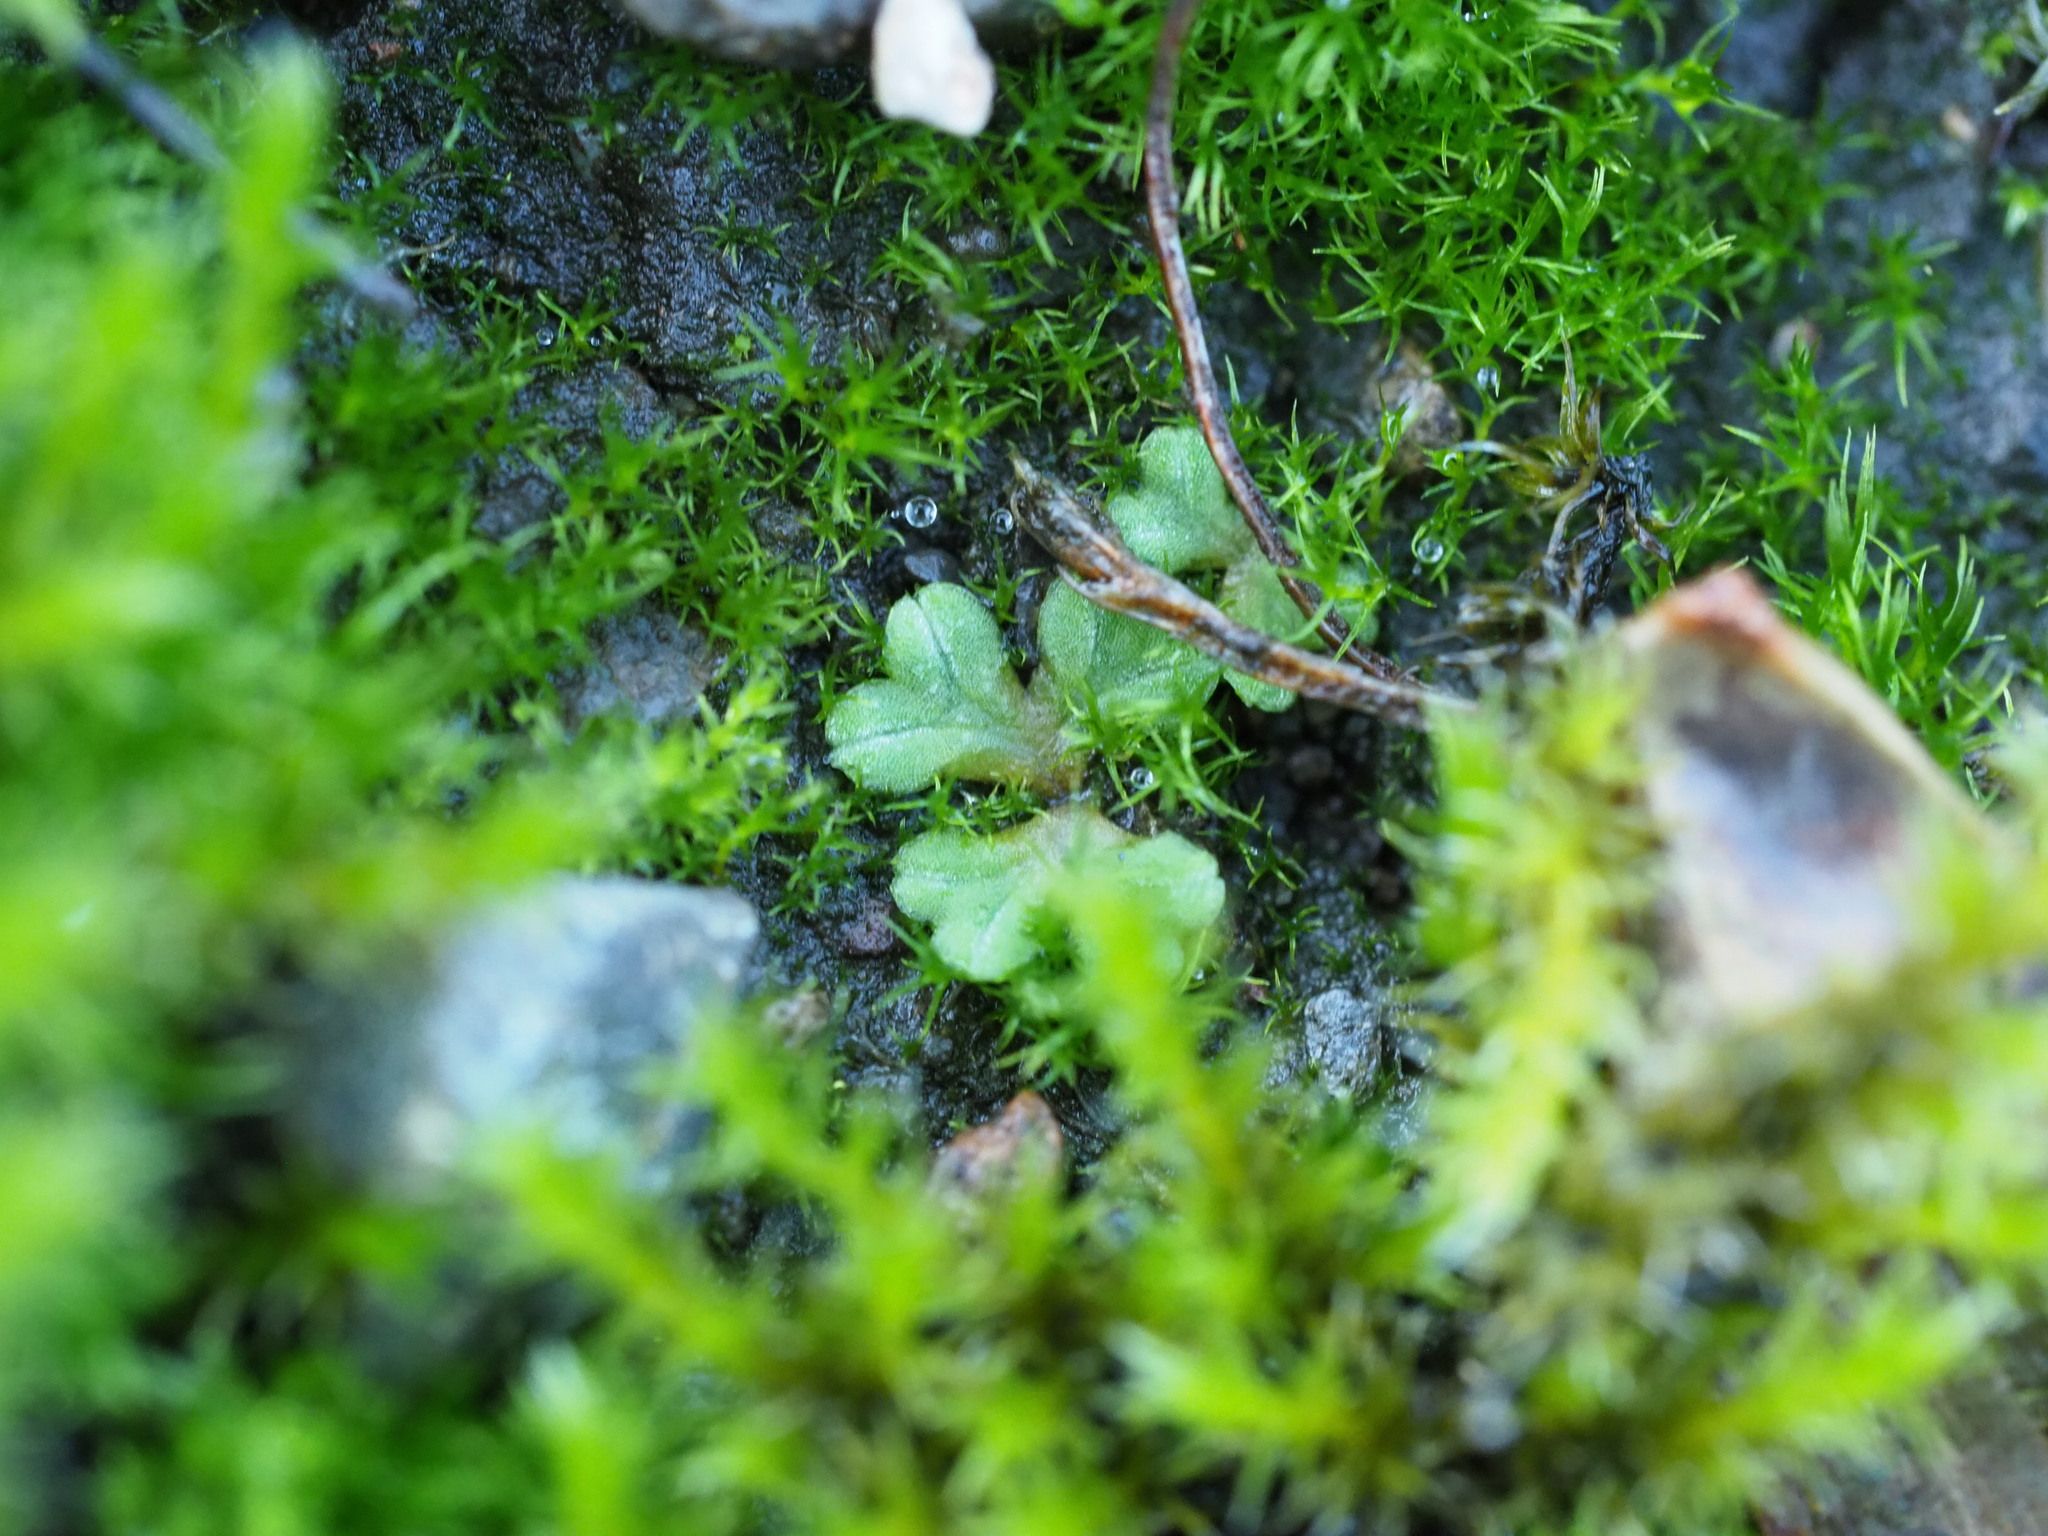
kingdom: Plantae
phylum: Marchantiophyta
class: Marchantiopsida
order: Marchantiales
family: Ricciaceae
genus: Riccia
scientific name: Riccia sorocarpa
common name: Common crystalwort
